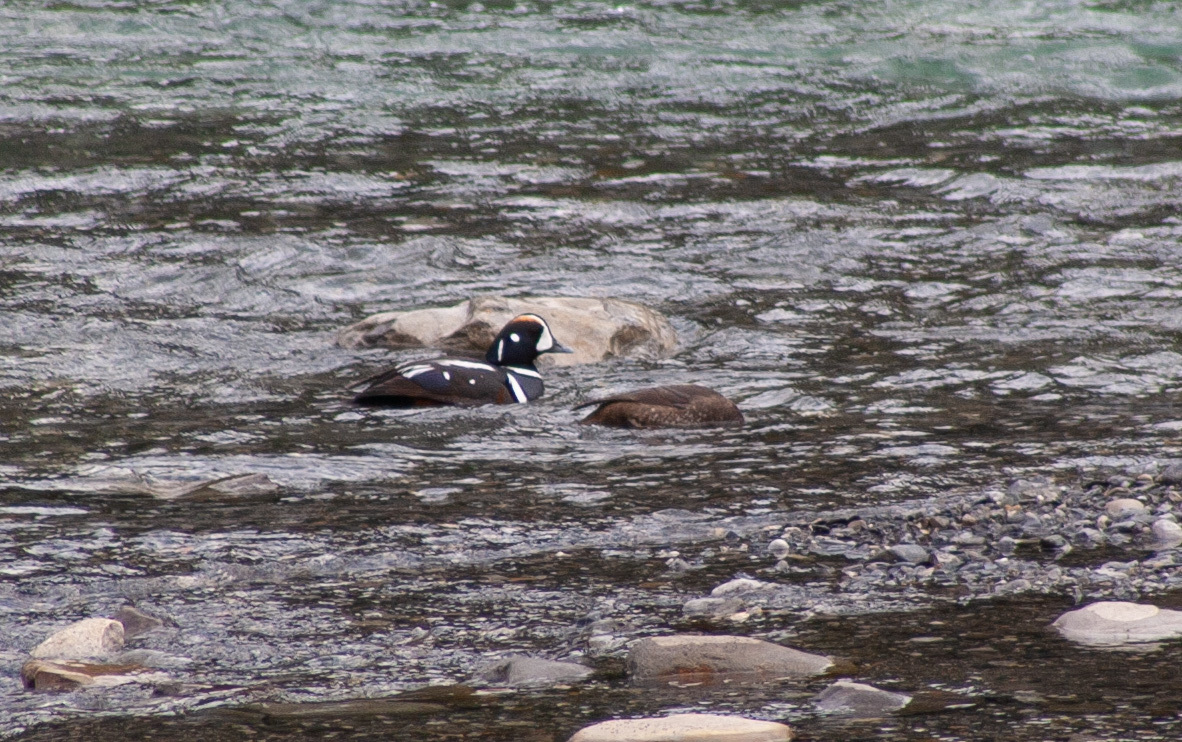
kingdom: Animalia
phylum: Chordata
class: Aves
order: Anseriformes
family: Anatidae
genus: Histrionicus
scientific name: Histrionicus histrionicus
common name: Harlequin duck
